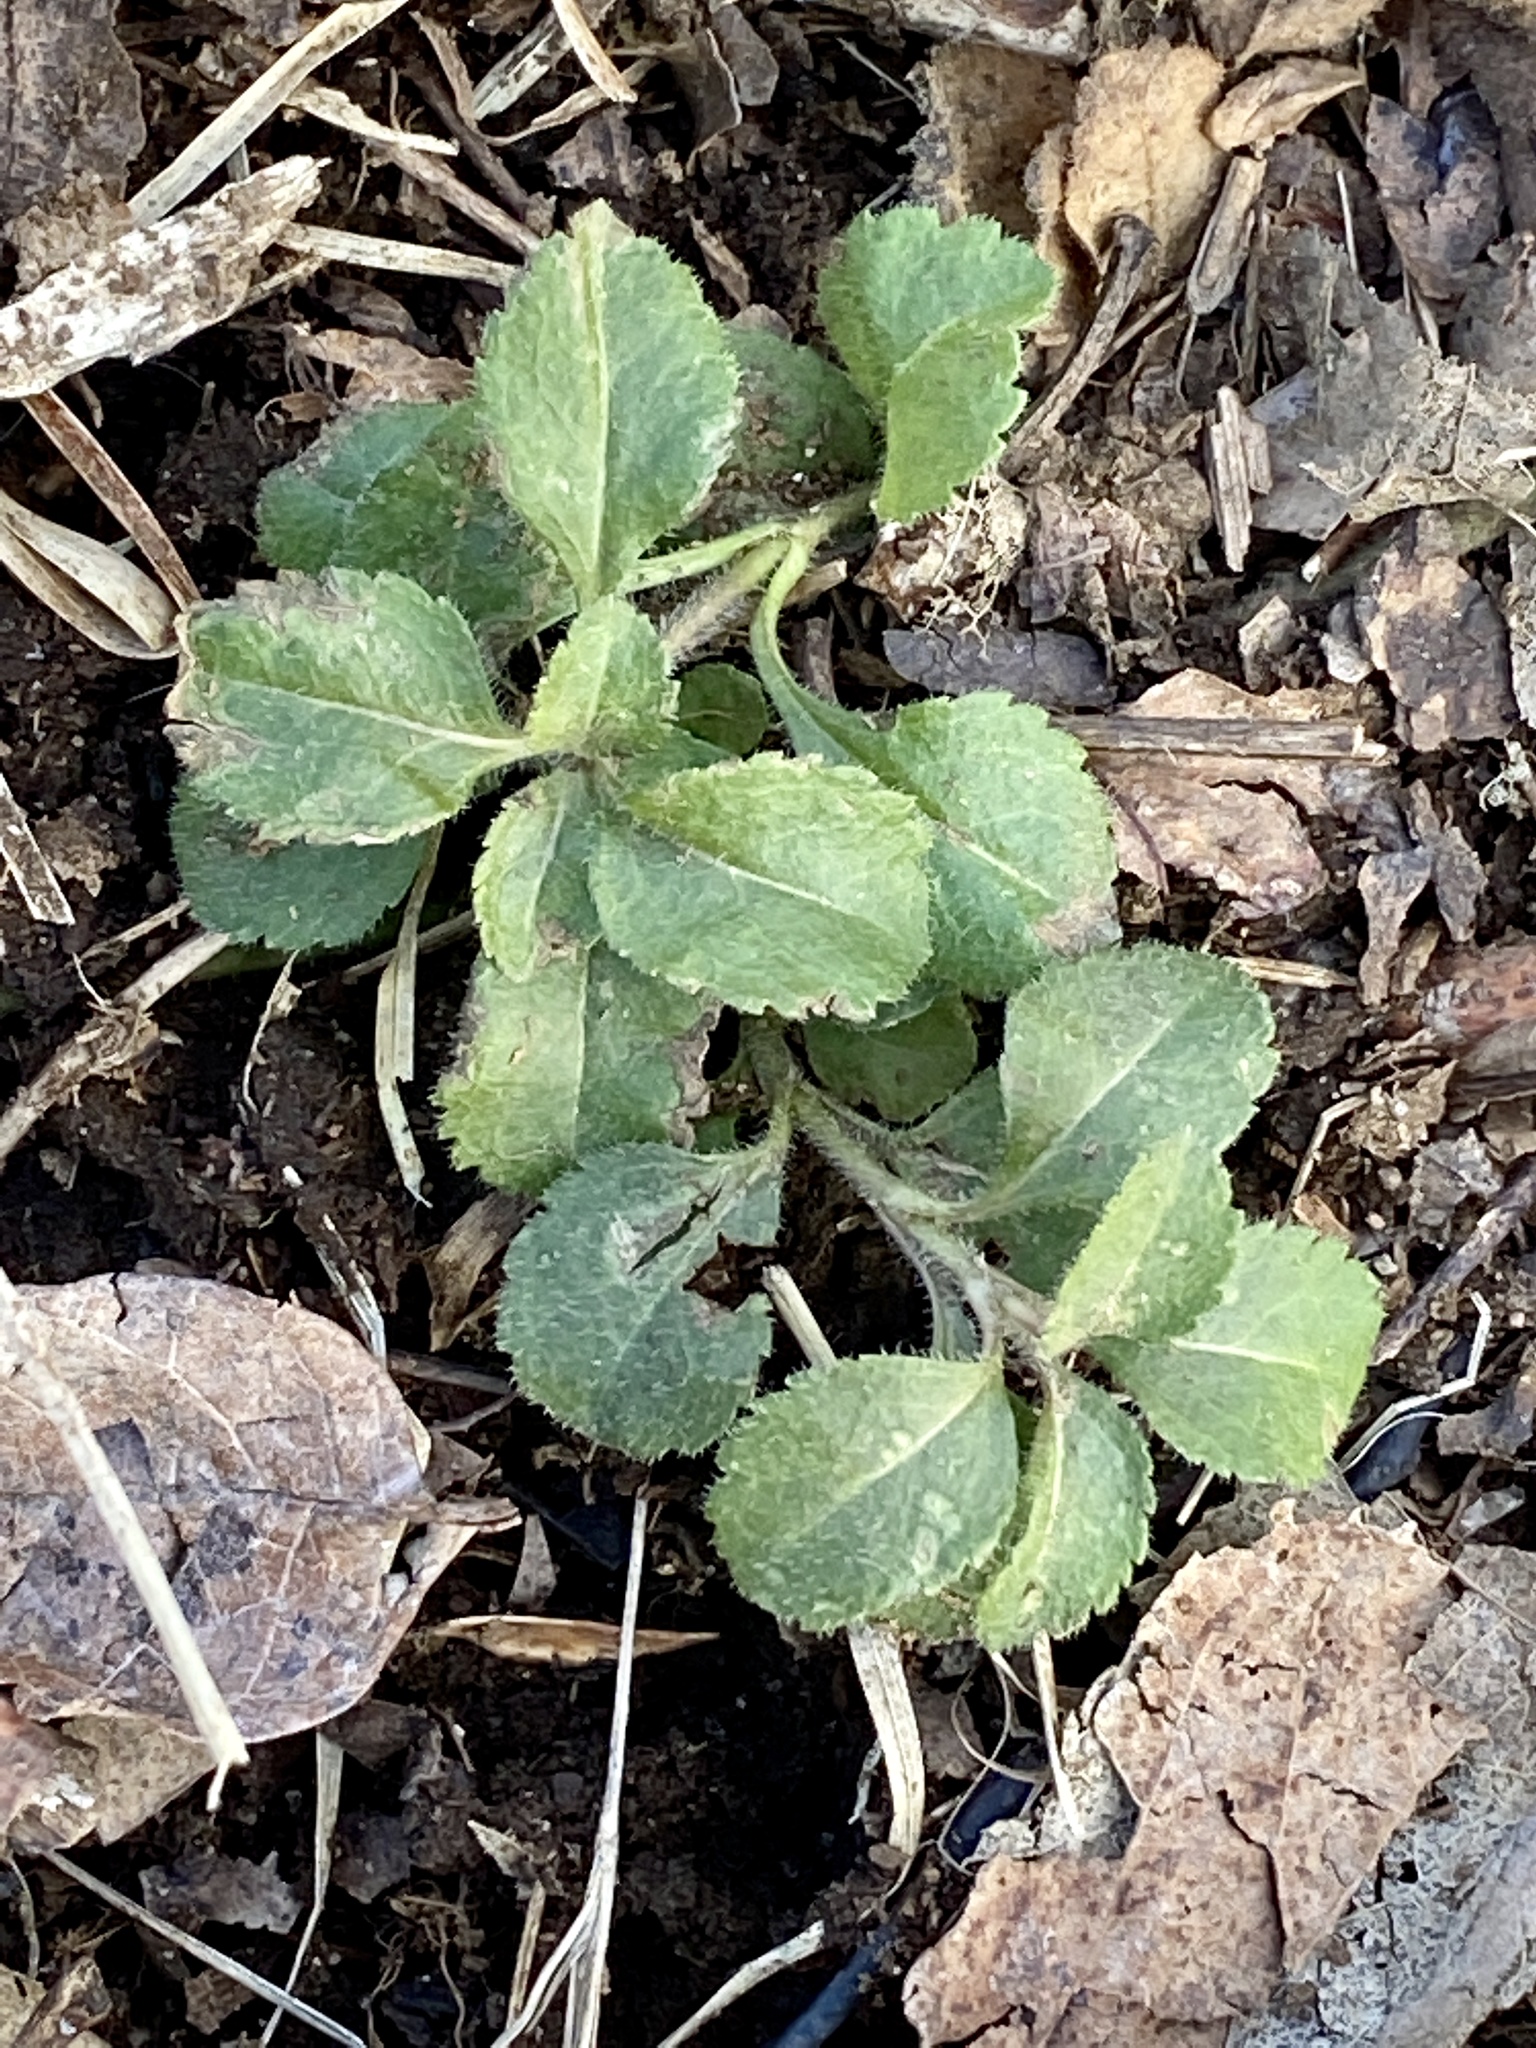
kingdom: Plantae
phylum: Tracheophyta
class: Magnoliopsida
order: Lamiales
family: Plantaginaceae
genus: Veronica
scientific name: Veronica officinalis
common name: Common speedwell
